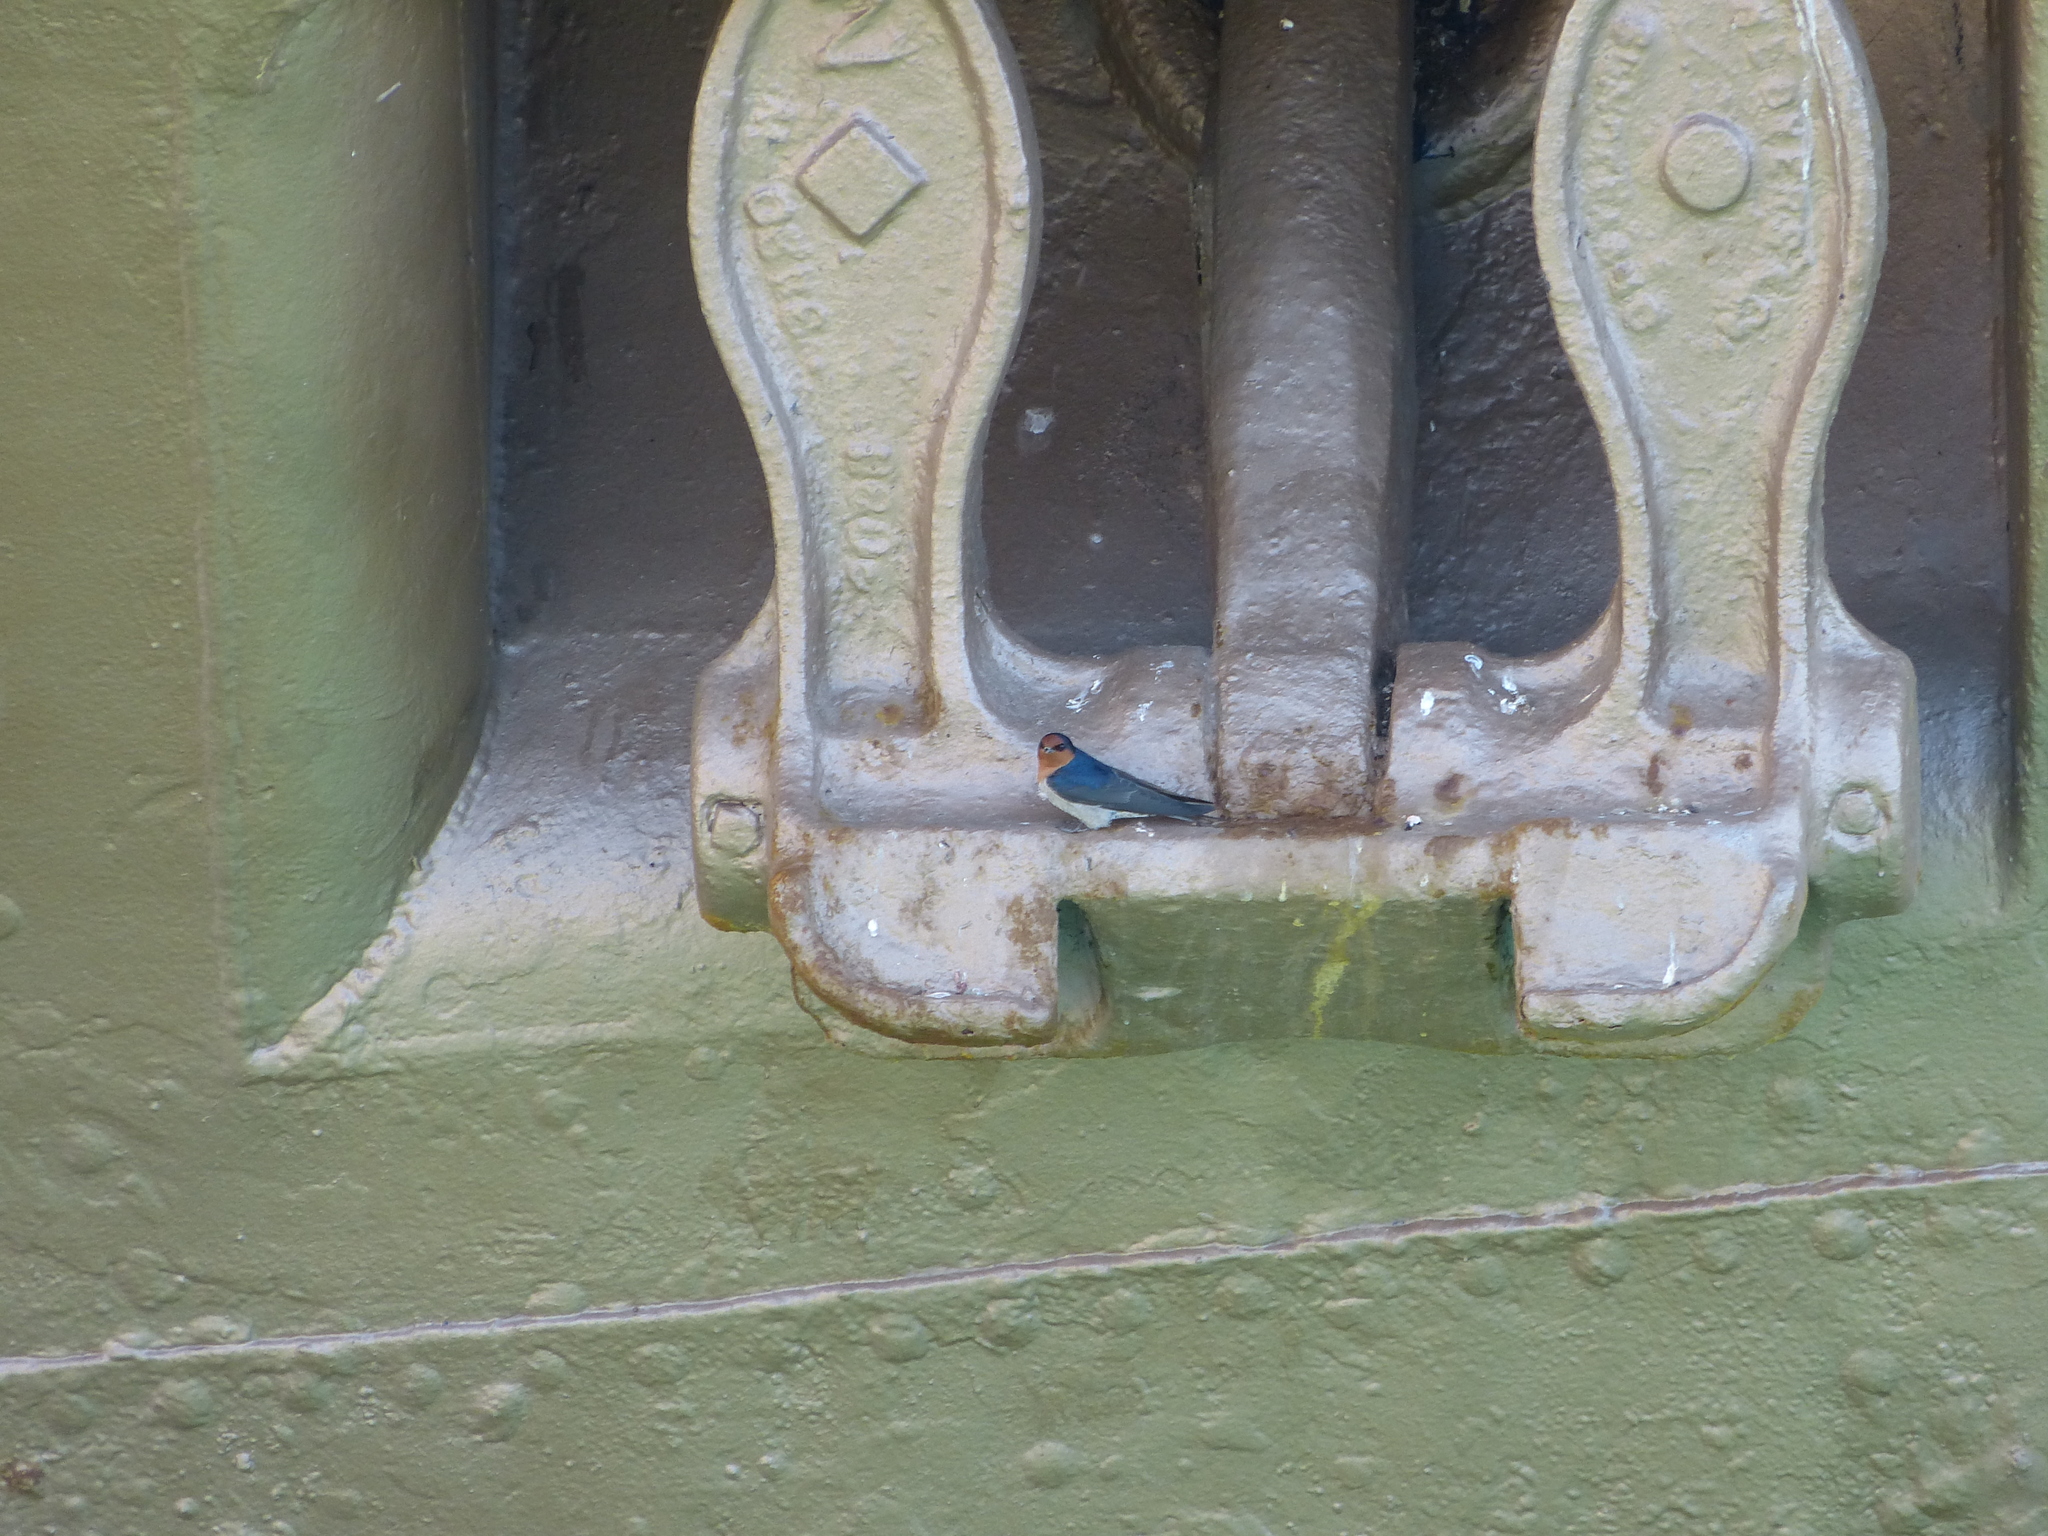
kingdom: Animalia
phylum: Chordata
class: Aves
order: Passeriformes
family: Hirundinidae
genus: Hirundo
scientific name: Hirundo neoxena
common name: Welcome swallow
